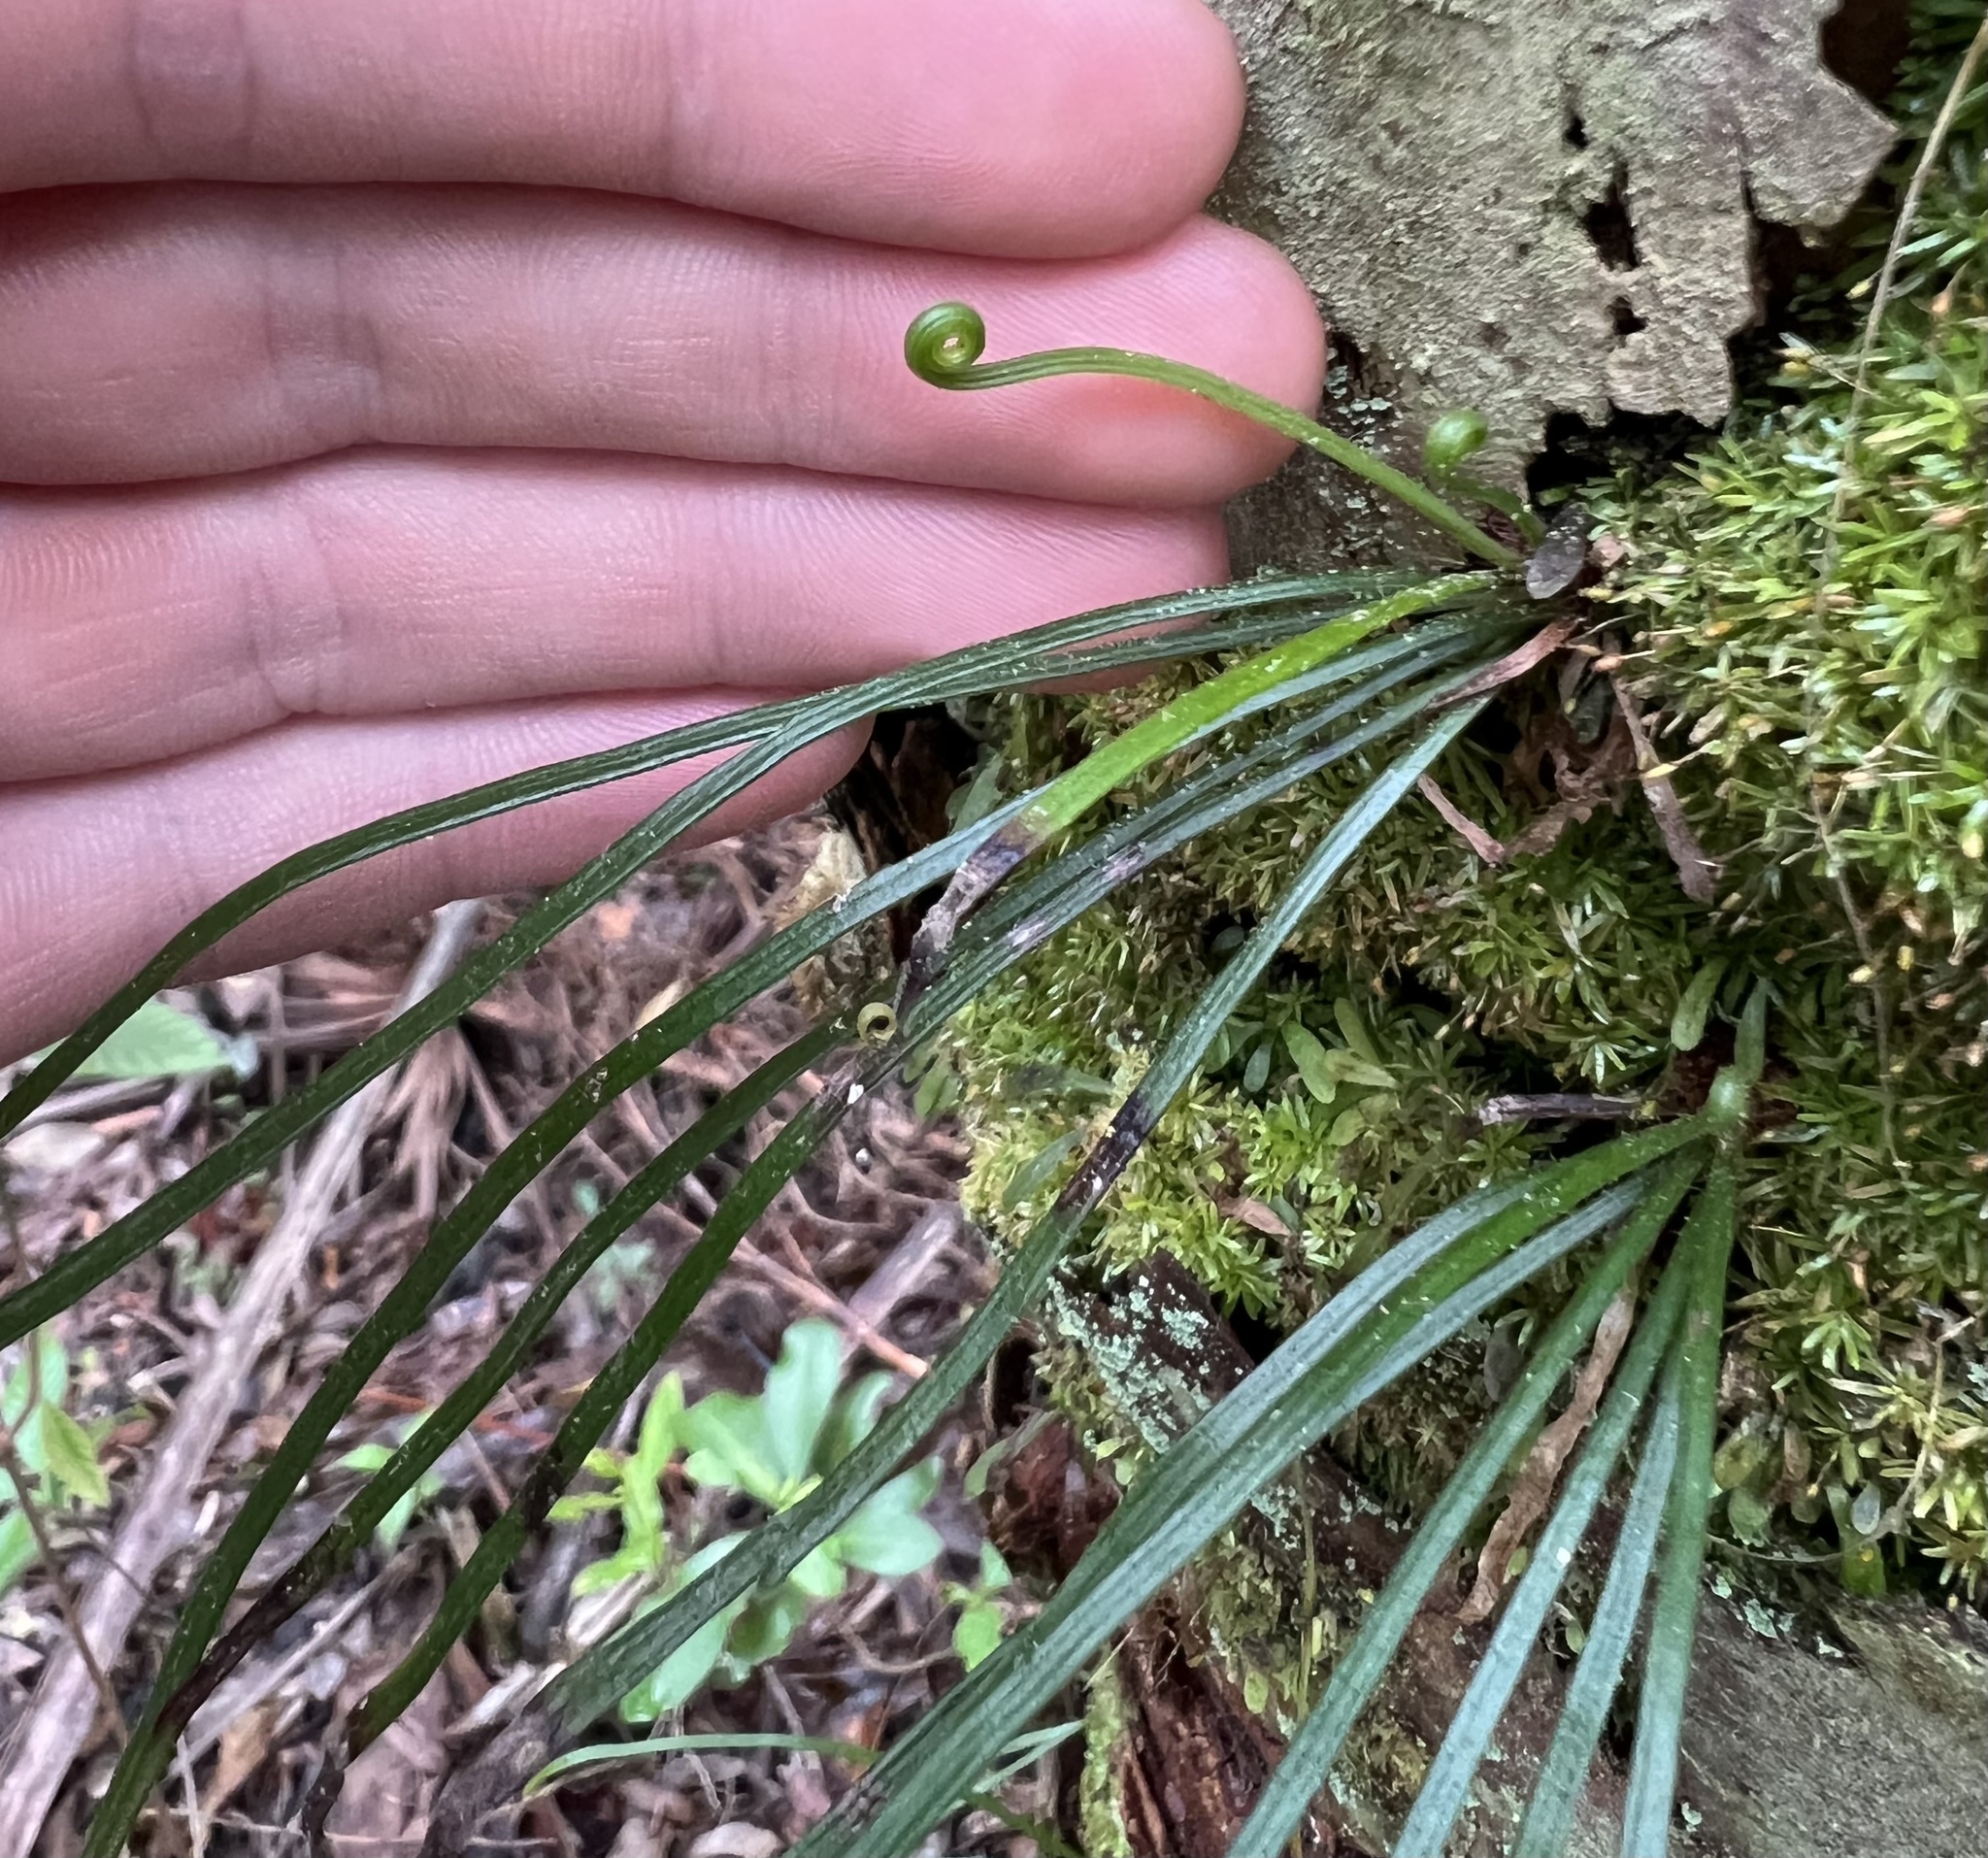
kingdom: Plantae
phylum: Tracheophyta
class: Polypodiopsida
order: Polypodiales
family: Pteridaceae
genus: Vittaria
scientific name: Vittaria lineata
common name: Shoestring fern
